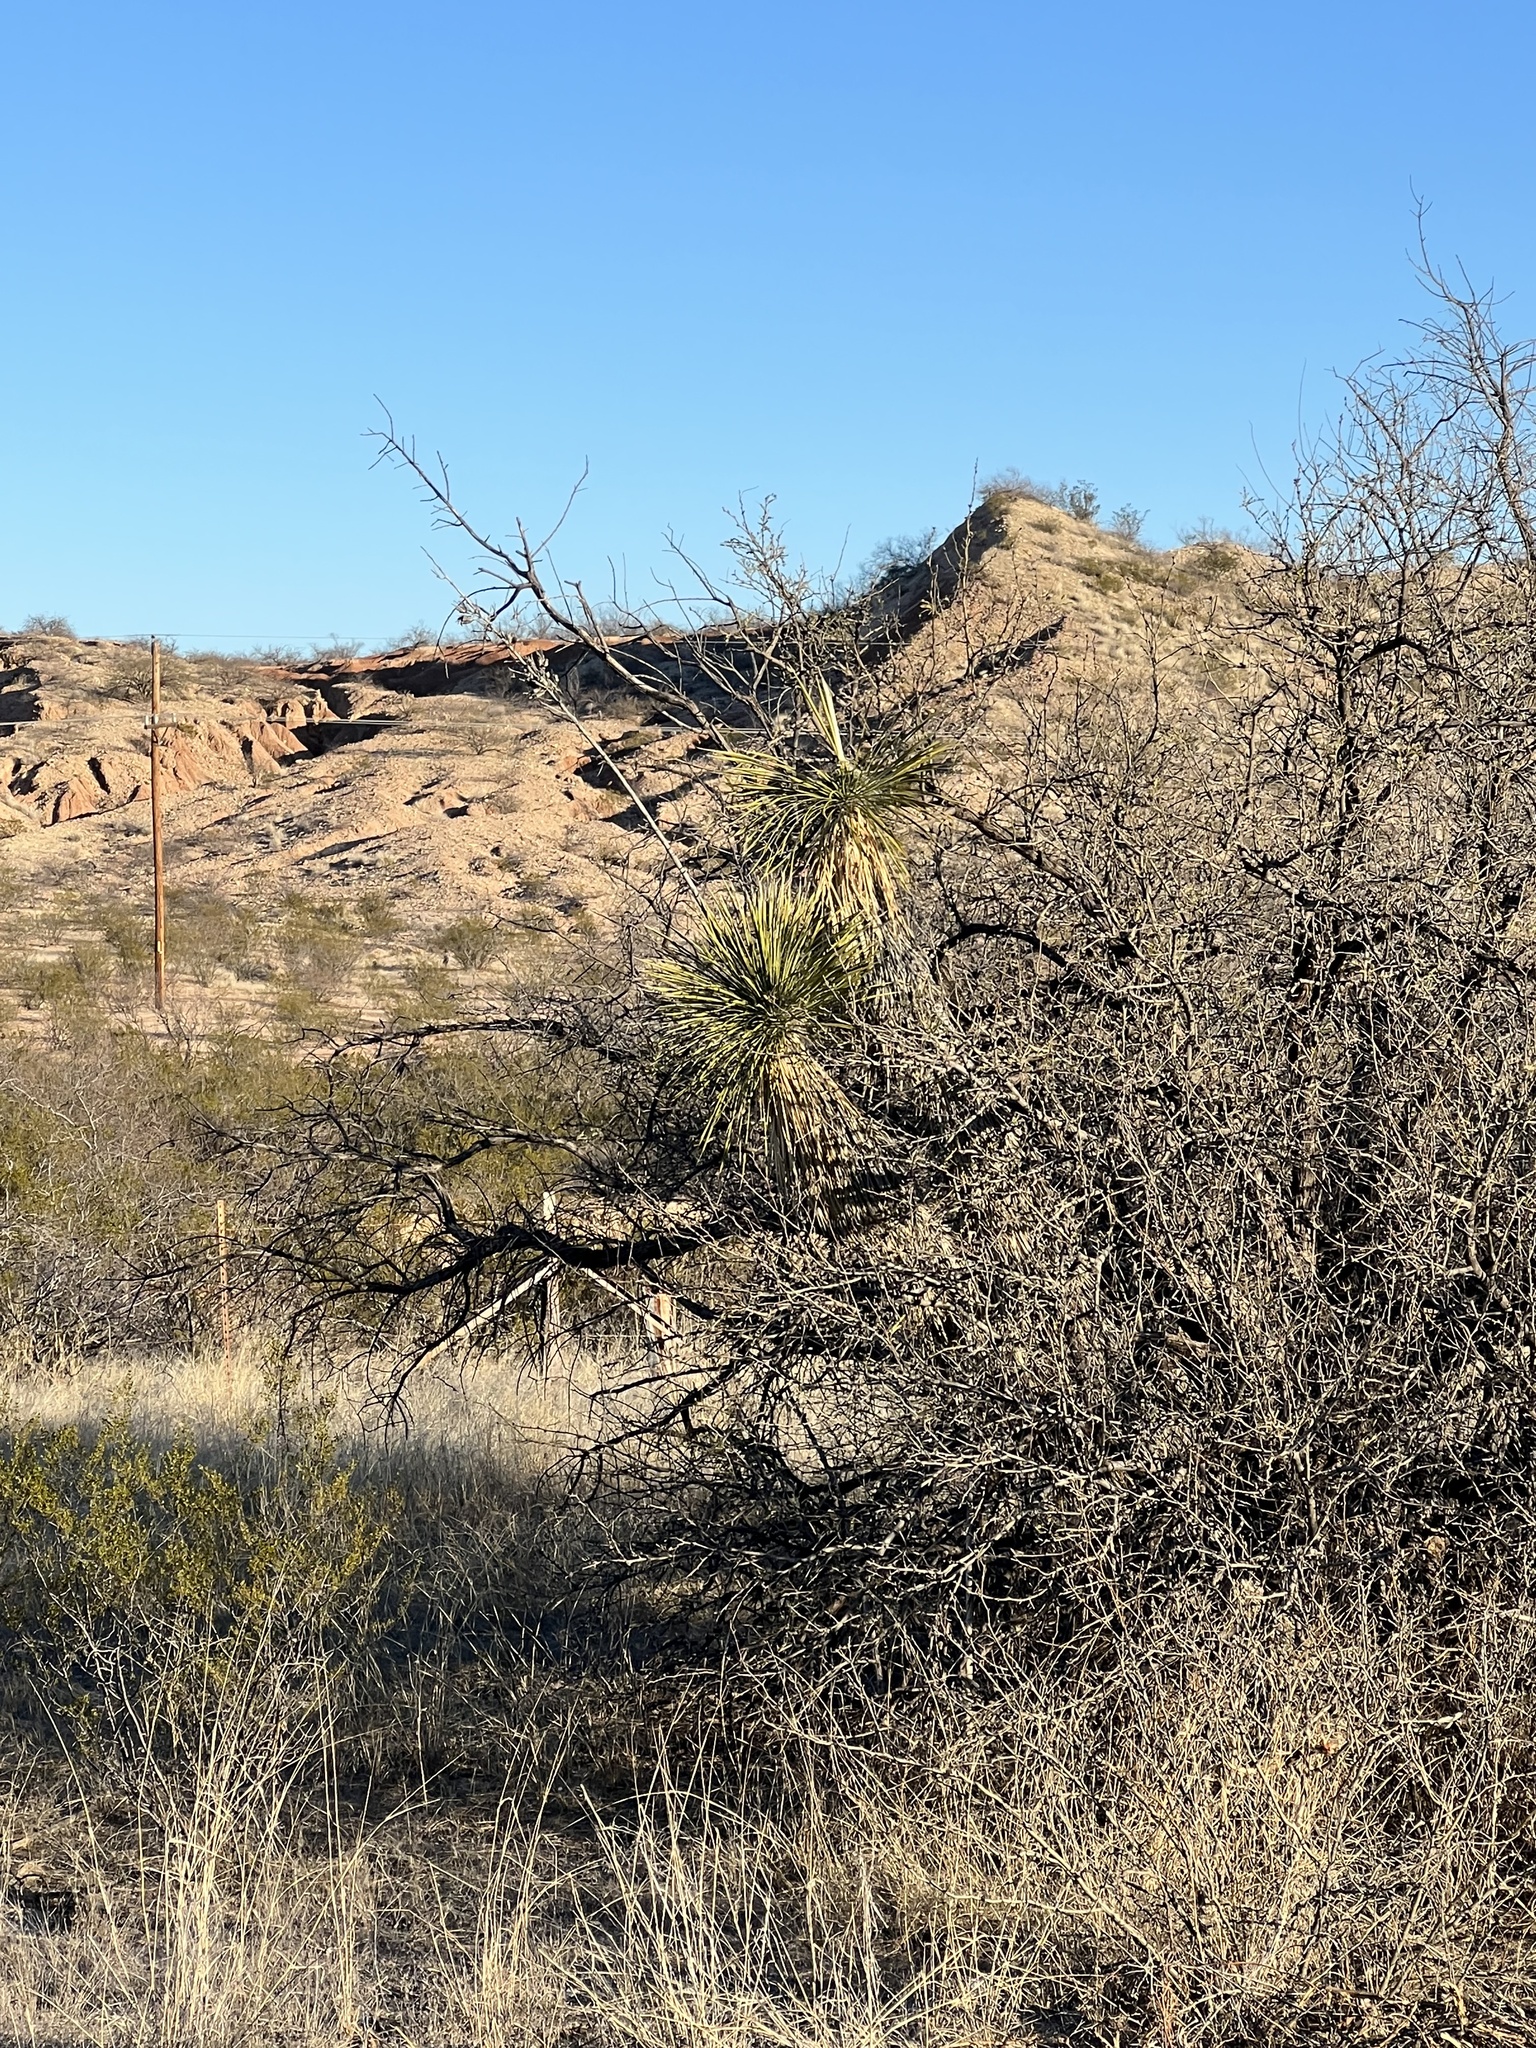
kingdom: Plantae
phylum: Tracheophyta
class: Liliopsida
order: Asparagales
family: Asparagaceae
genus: Yucca
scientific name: Yucca elata
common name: Palmella
